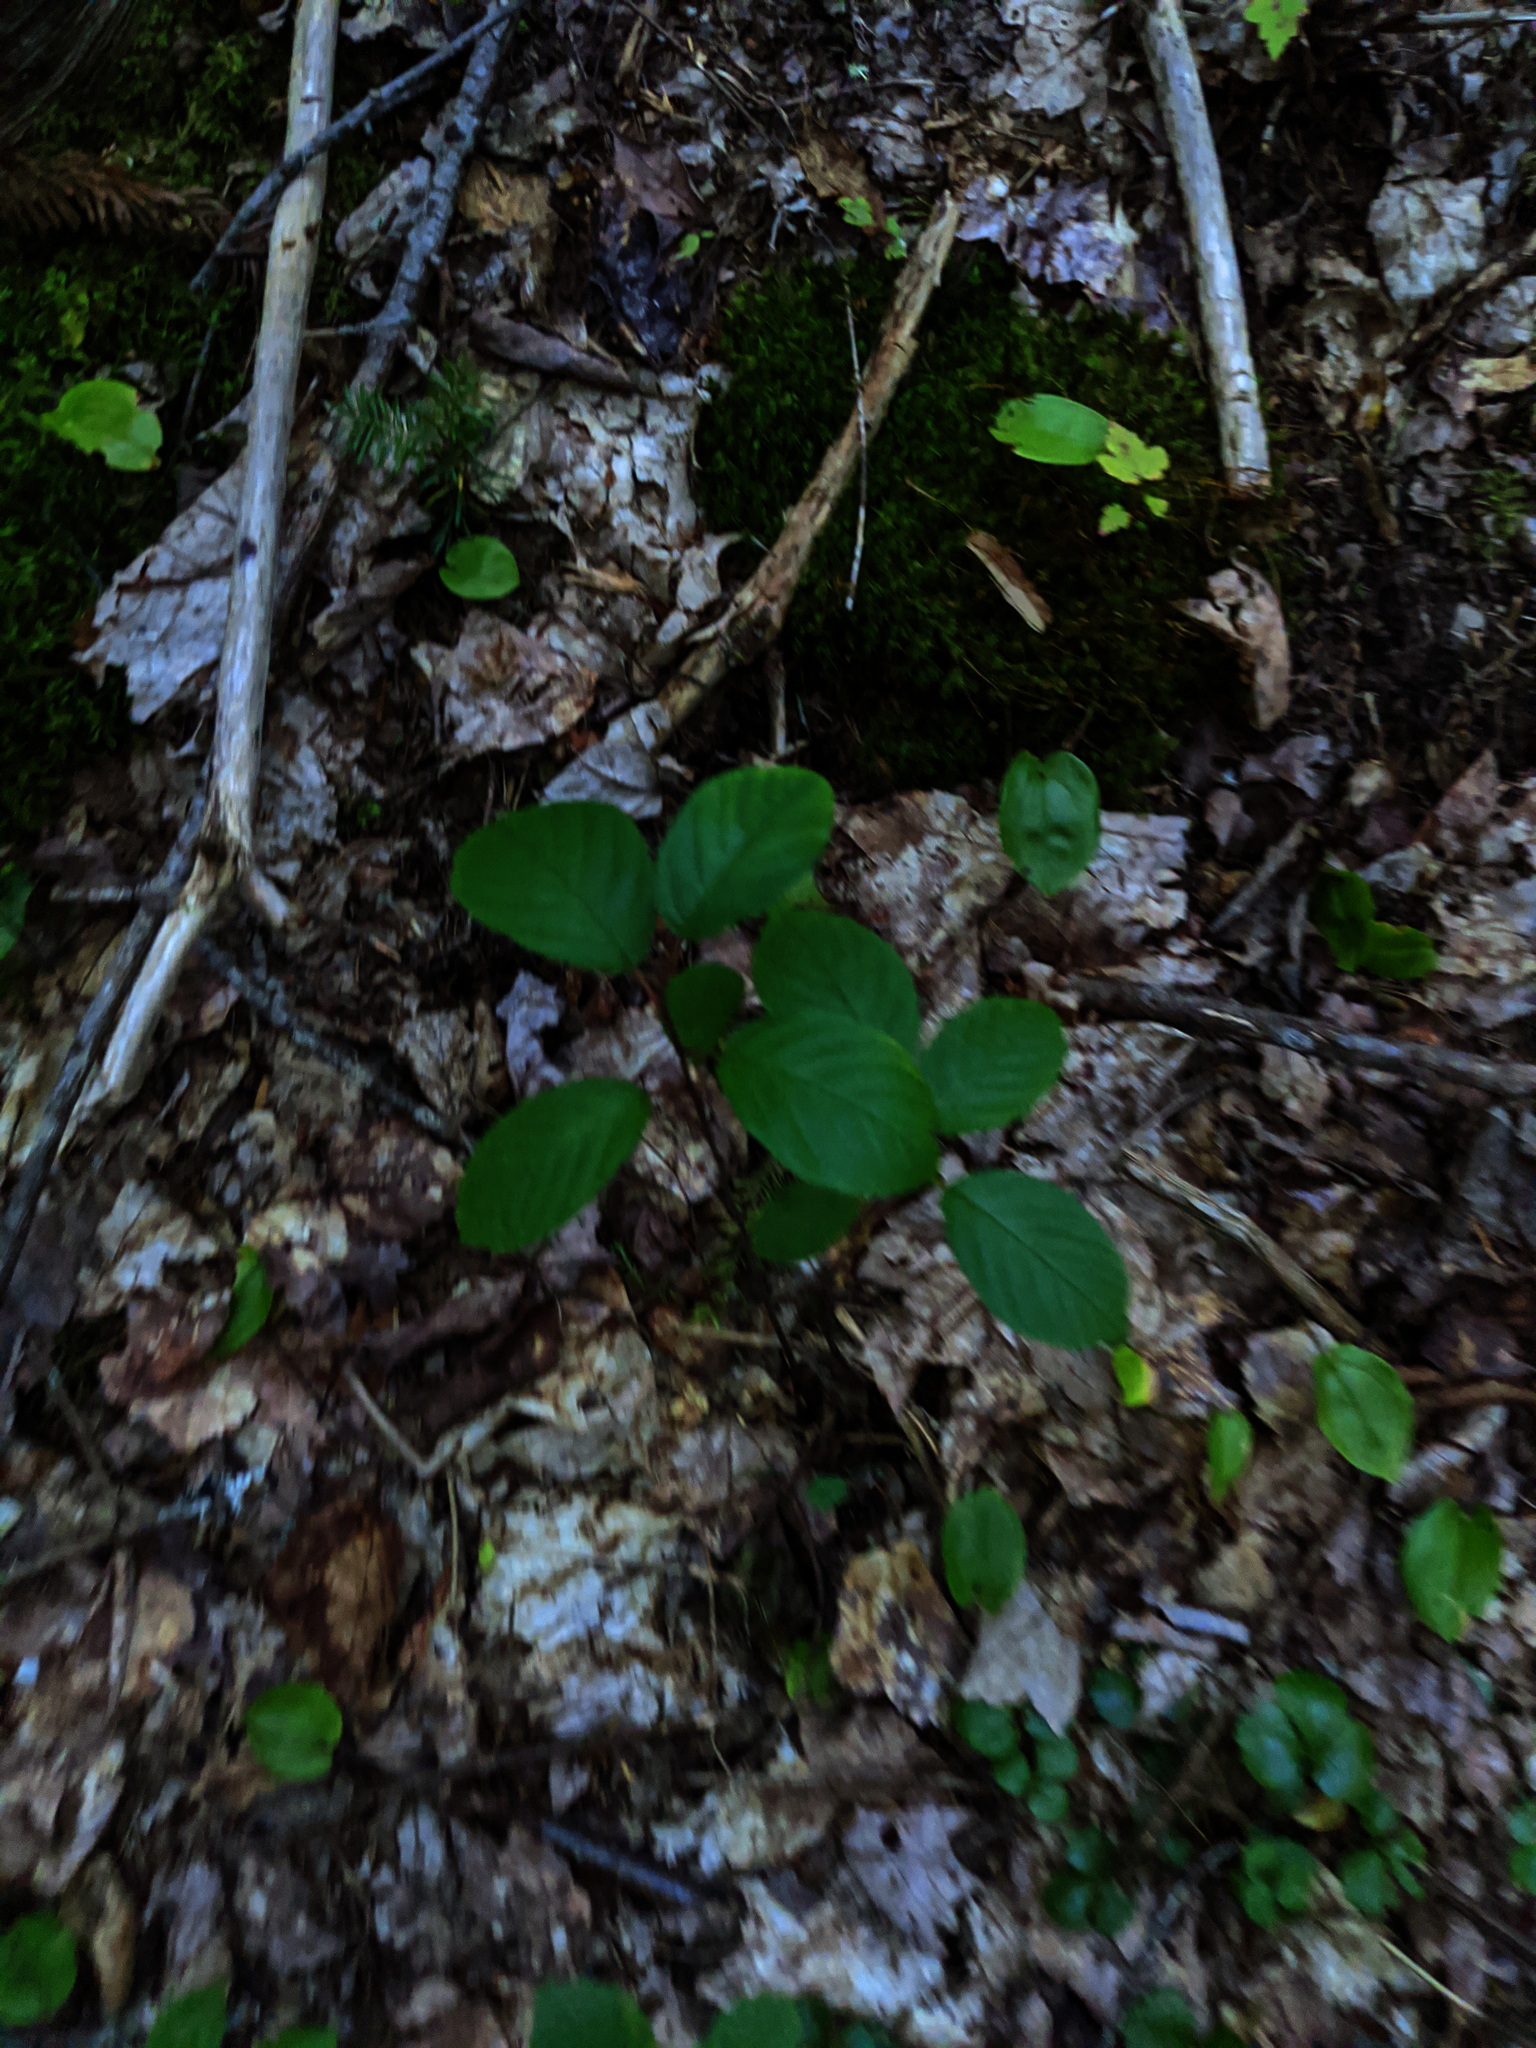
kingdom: Plantae
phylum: Tracheophyta
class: Liliopsida
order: Asparagales
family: Asparagaceae
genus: Maianthemum
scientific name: Maianthemum canadense
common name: False lily-of-the-valley
